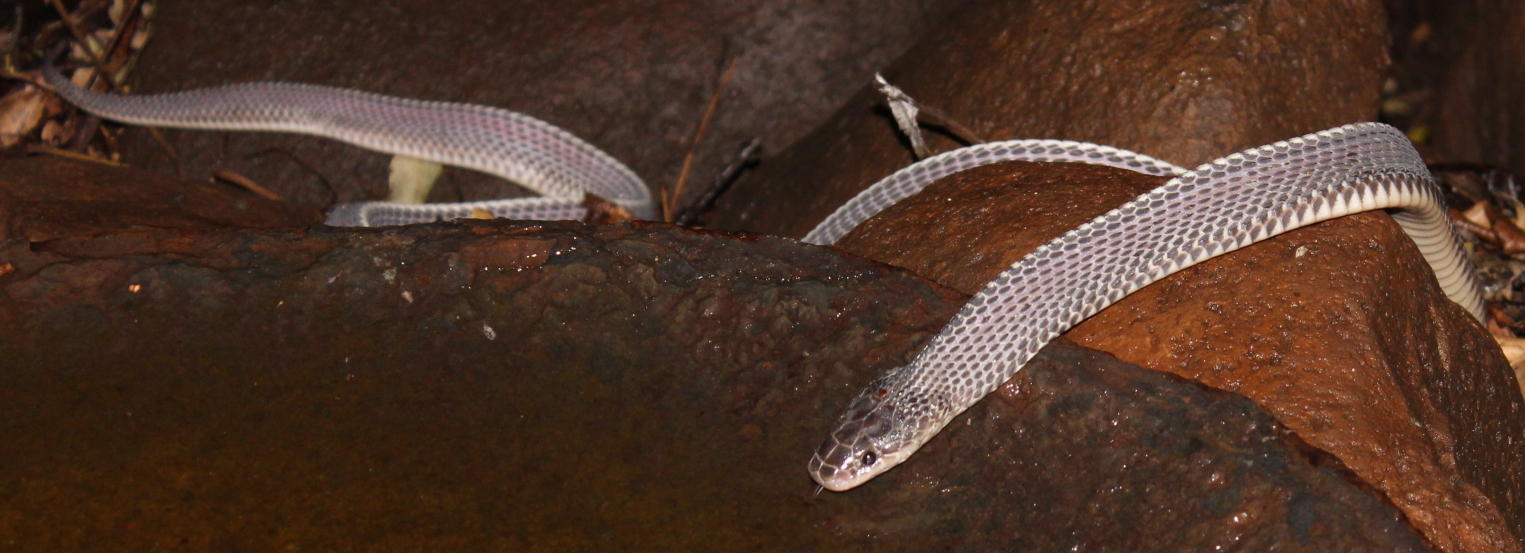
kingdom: Animalia
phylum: Chordata
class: Squamata
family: Lamprophiidae
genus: Limaformosa
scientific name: Limaformosa capensis
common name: Cape file snake
